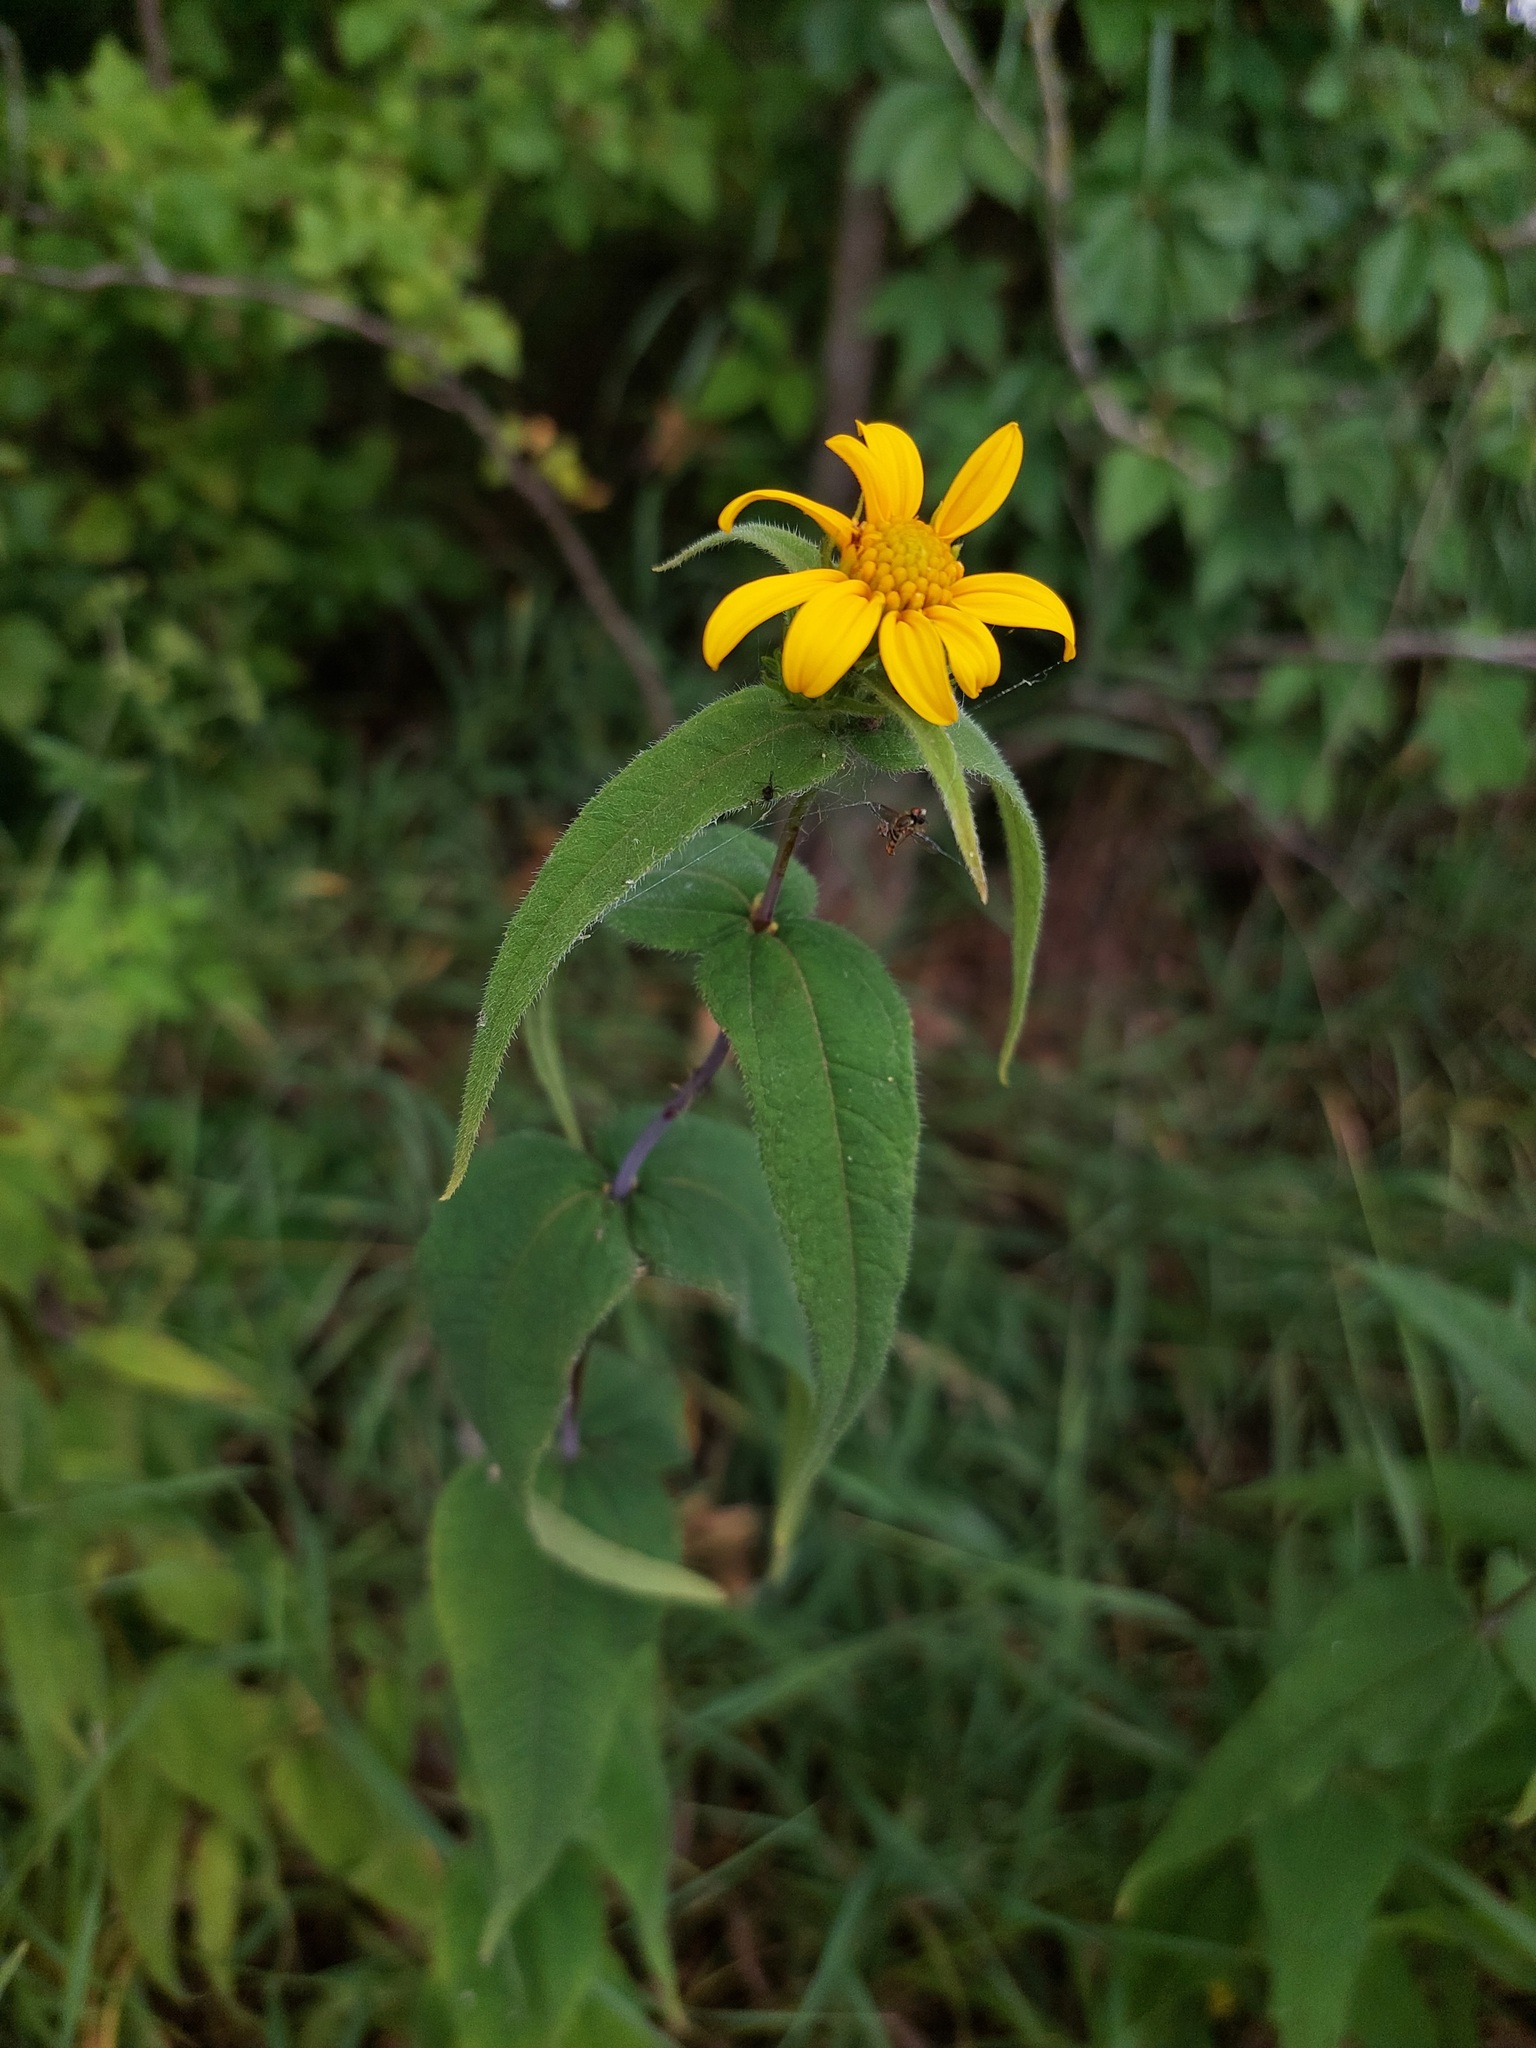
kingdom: Plantae
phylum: Tracheophyta
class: Magnoliopsida
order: Asterales
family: Asteraceae
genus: Helianthus
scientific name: Helianthus divaricatus
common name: Divergent sunflower
